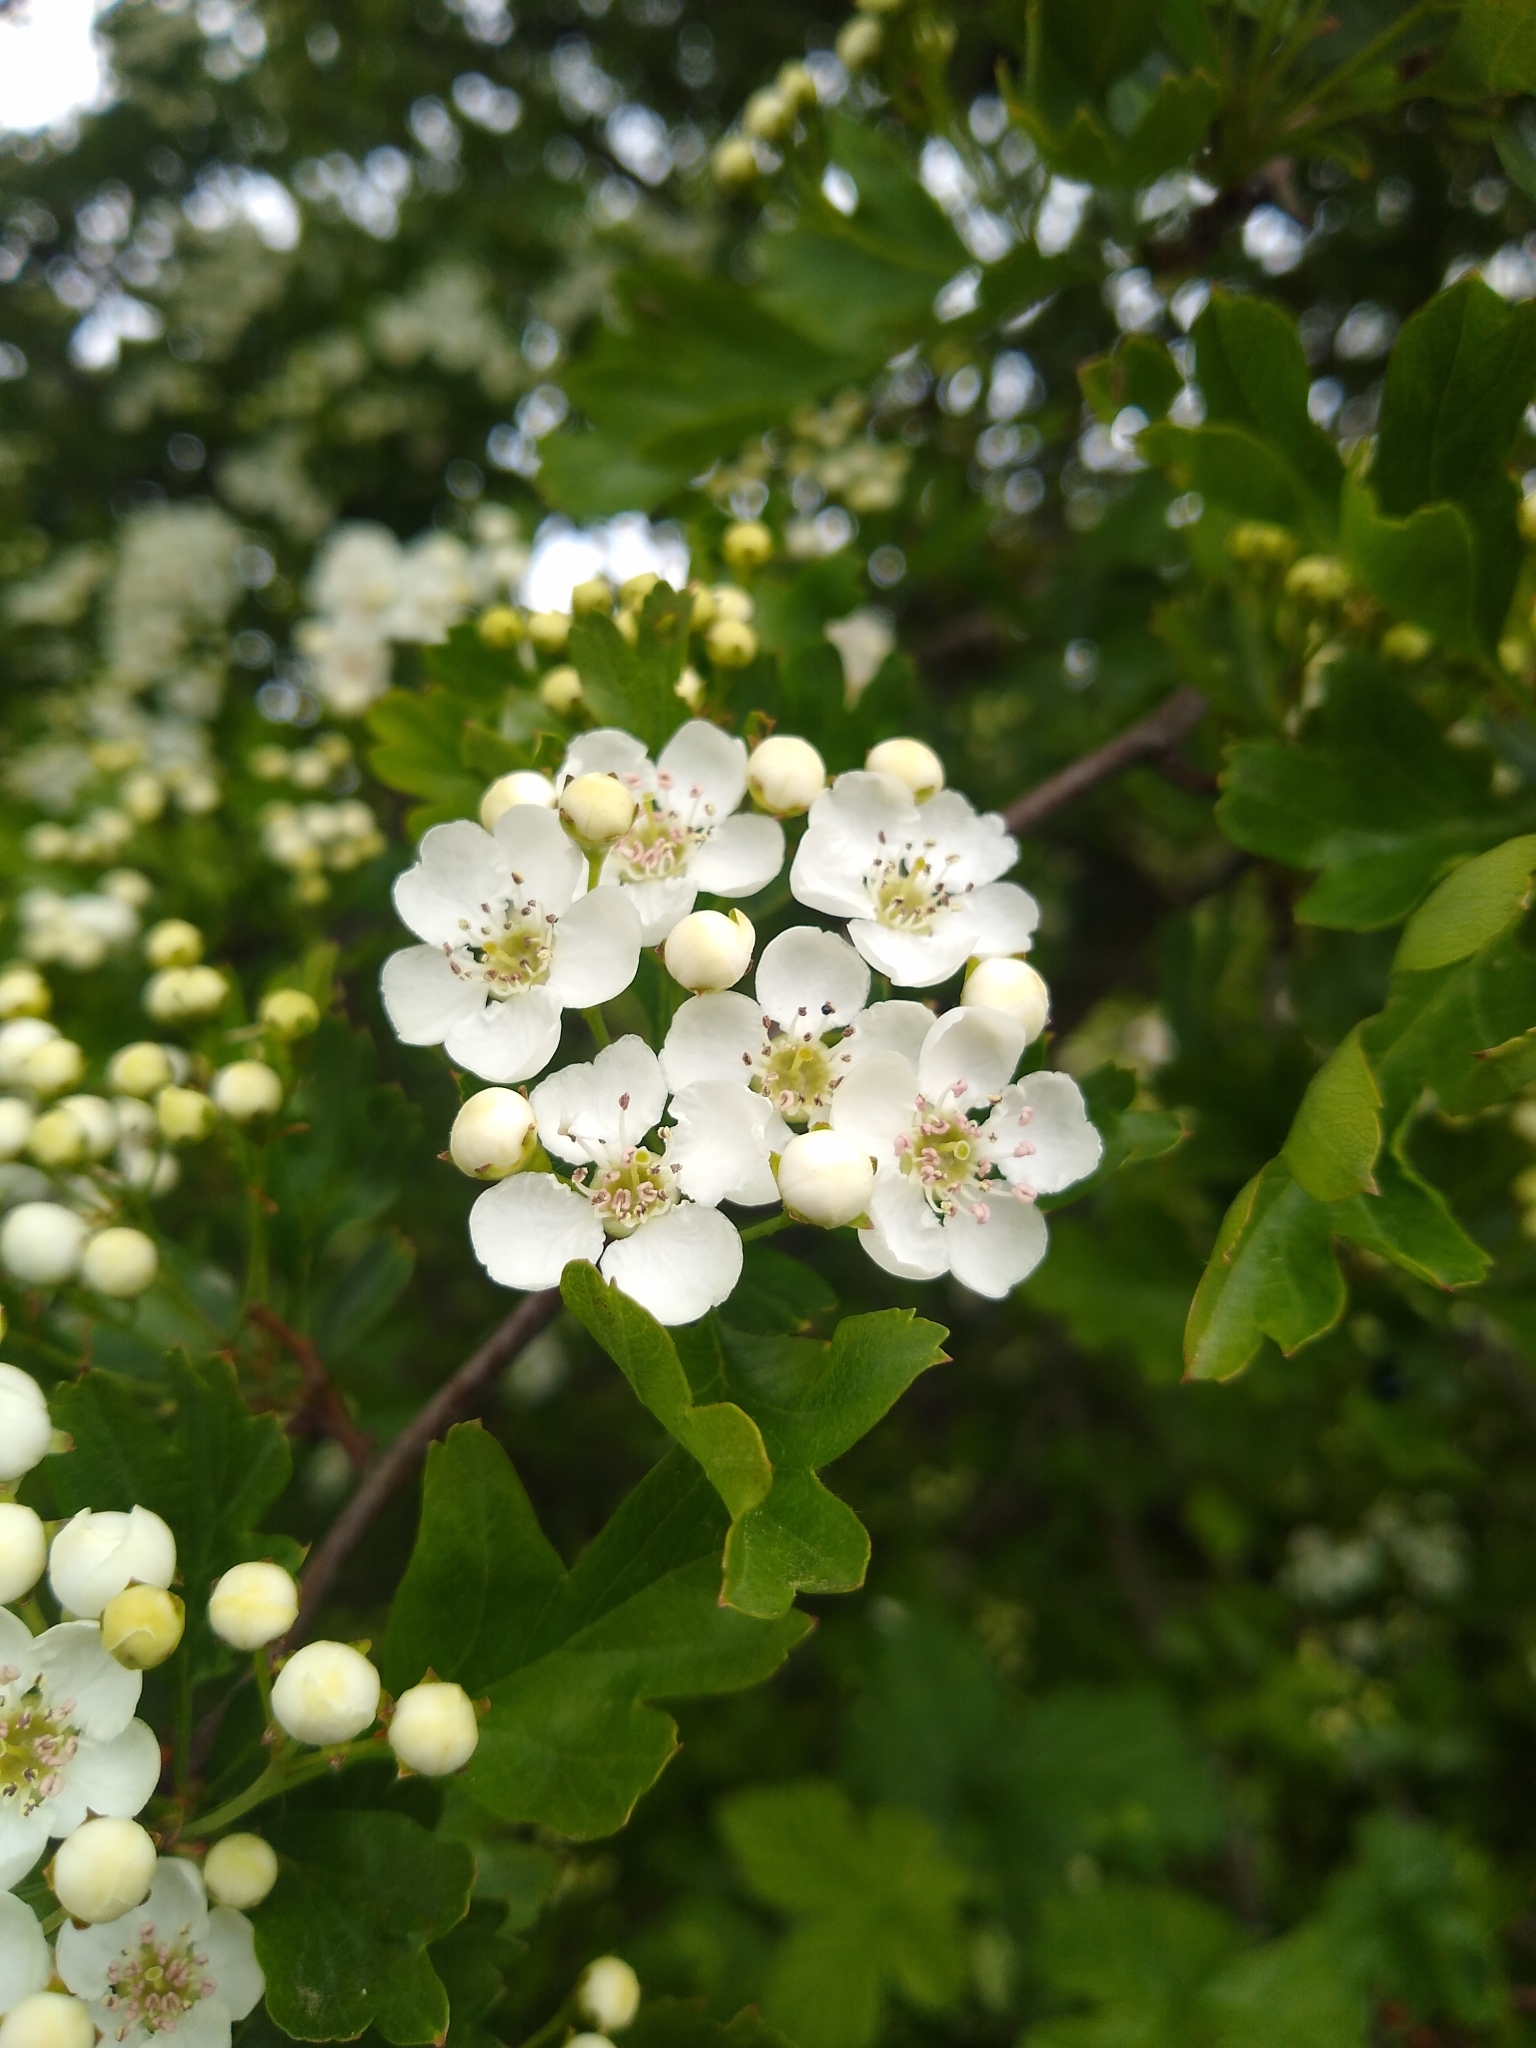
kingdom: Plantae
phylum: Tracheophyta
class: Magnoliopsida
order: Rosales
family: Rosaceae
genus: Crataegus
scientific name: Crataegus monogyna
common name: Hawthorn
